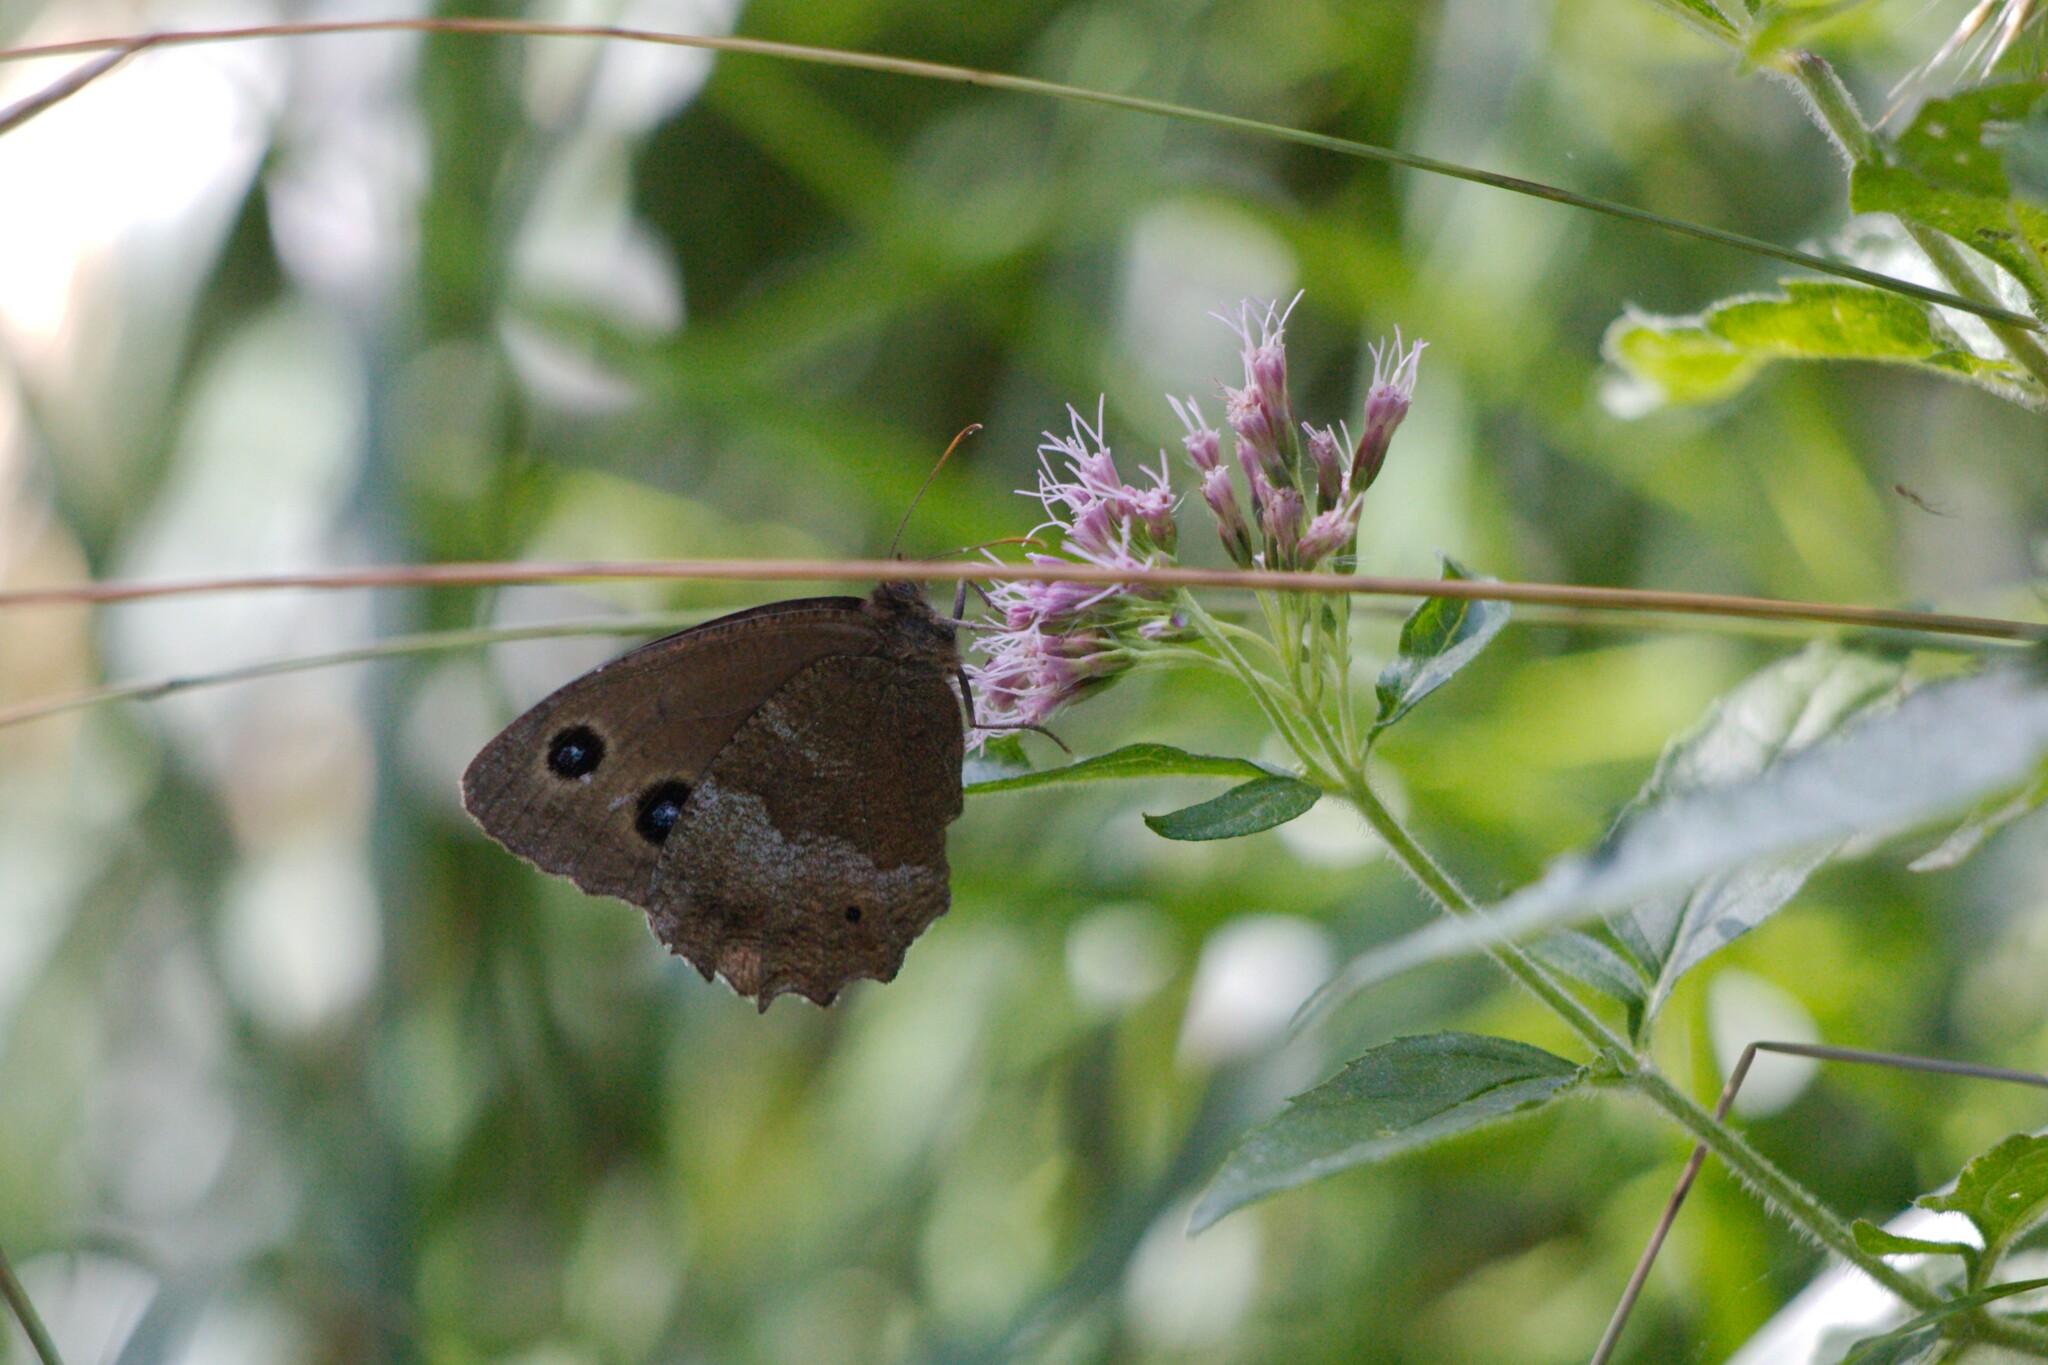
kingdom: Animalia
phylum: Arthropoda
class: Insecta
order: Lepidoptera
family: Nymphalidae
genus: Minois
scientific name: Minois dryas
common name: Dryad
